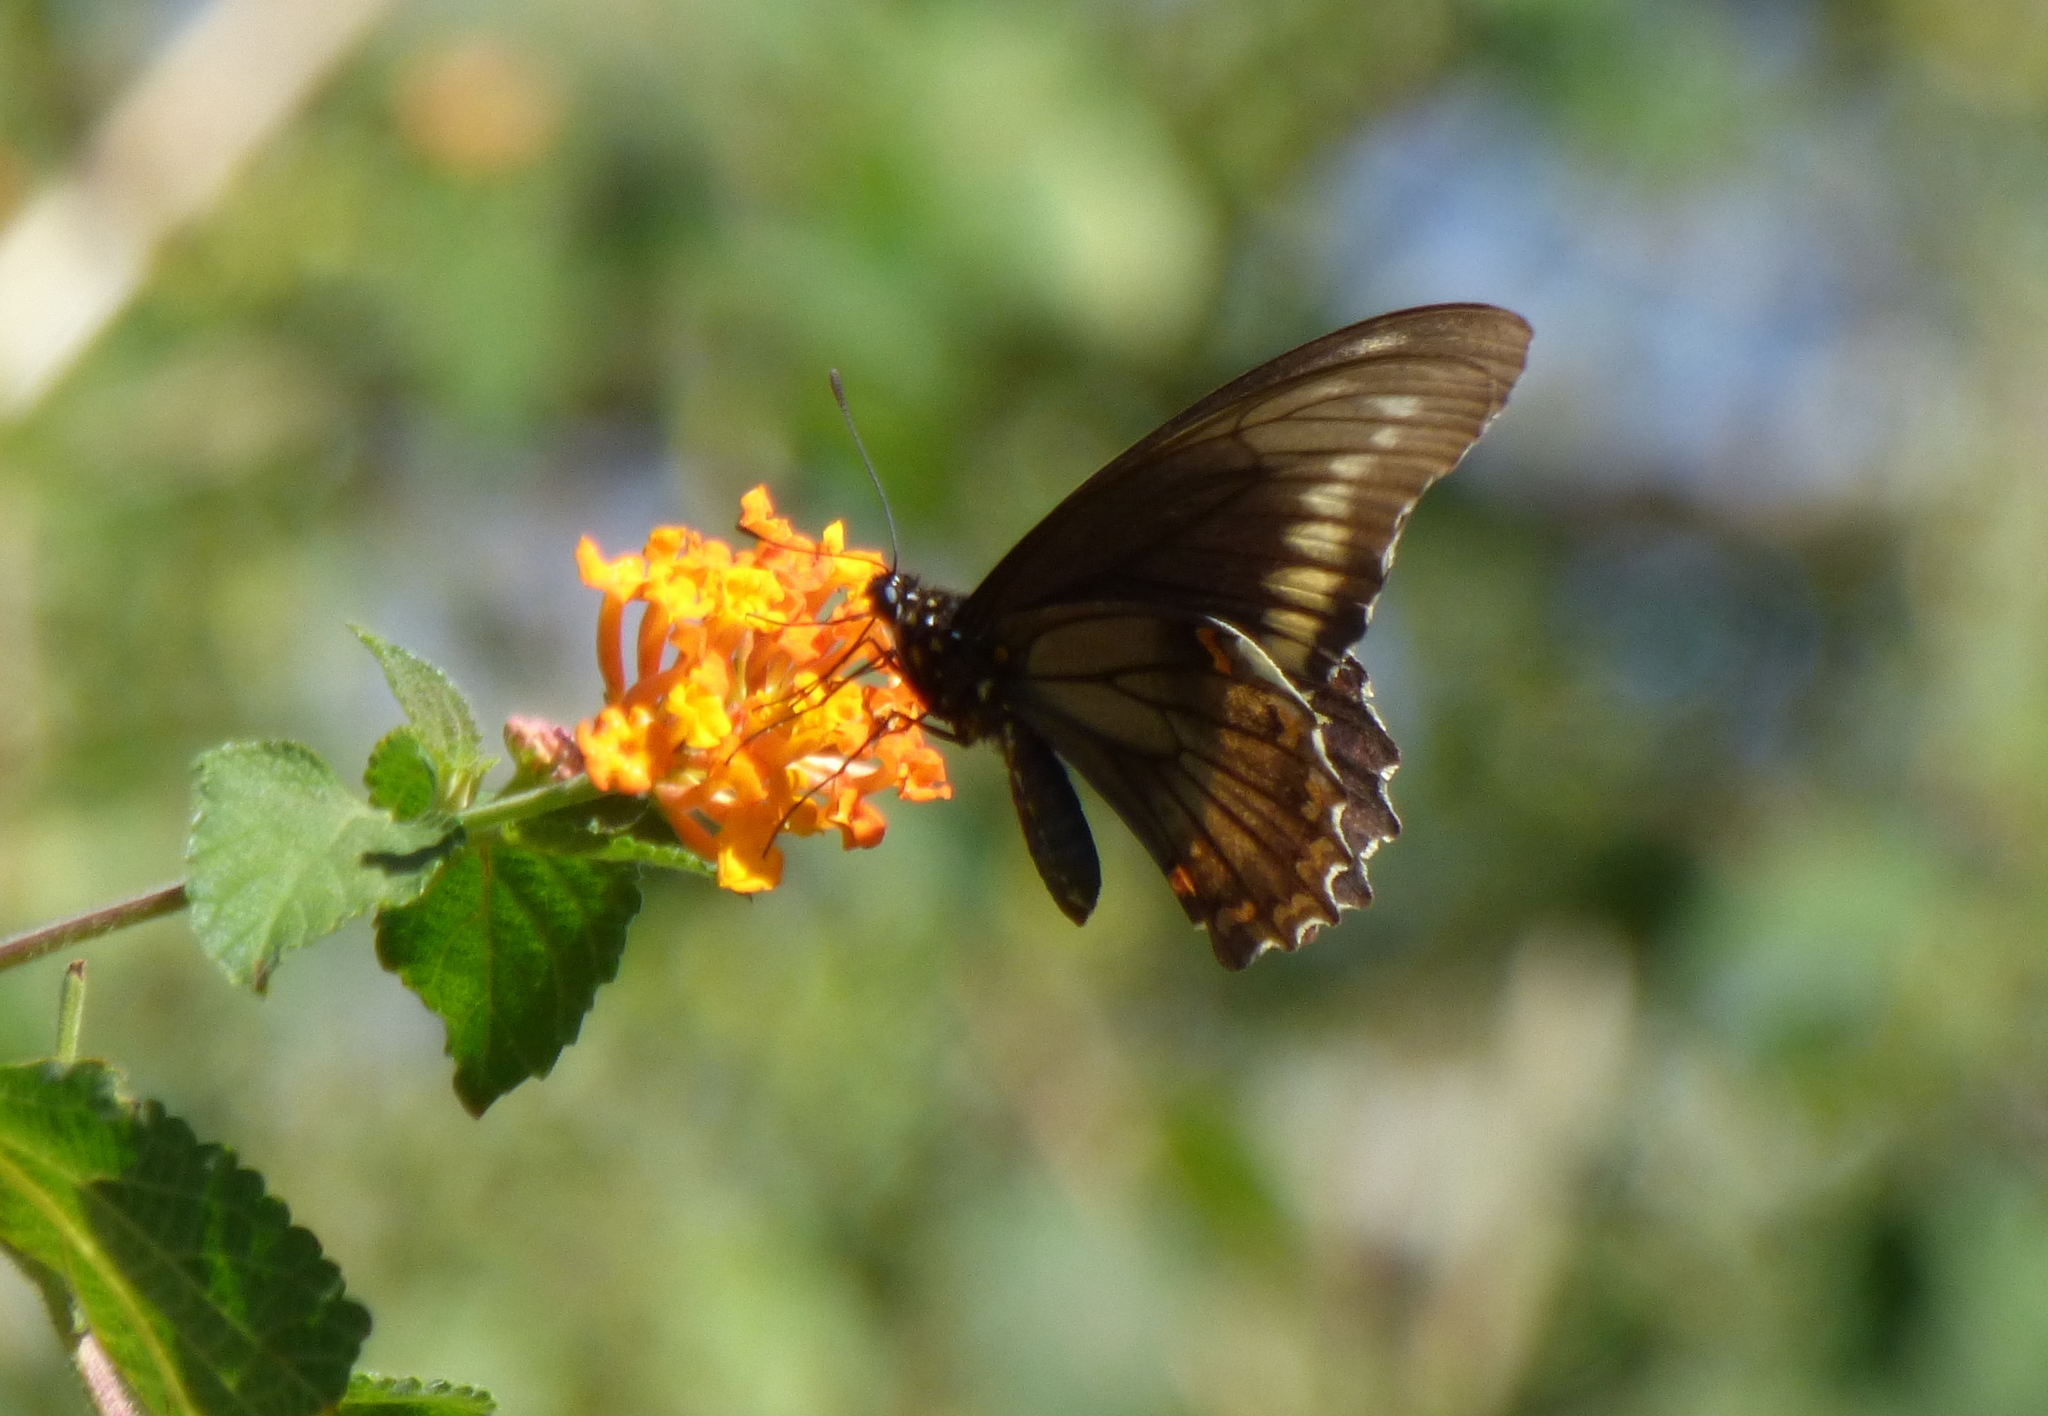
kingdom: Animalia
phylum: Arthropoda
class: Insecta
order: Lepidoptera
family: Papilionidae
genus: Battus
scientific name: Battus polydamas
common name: Polydamas swallowtail
